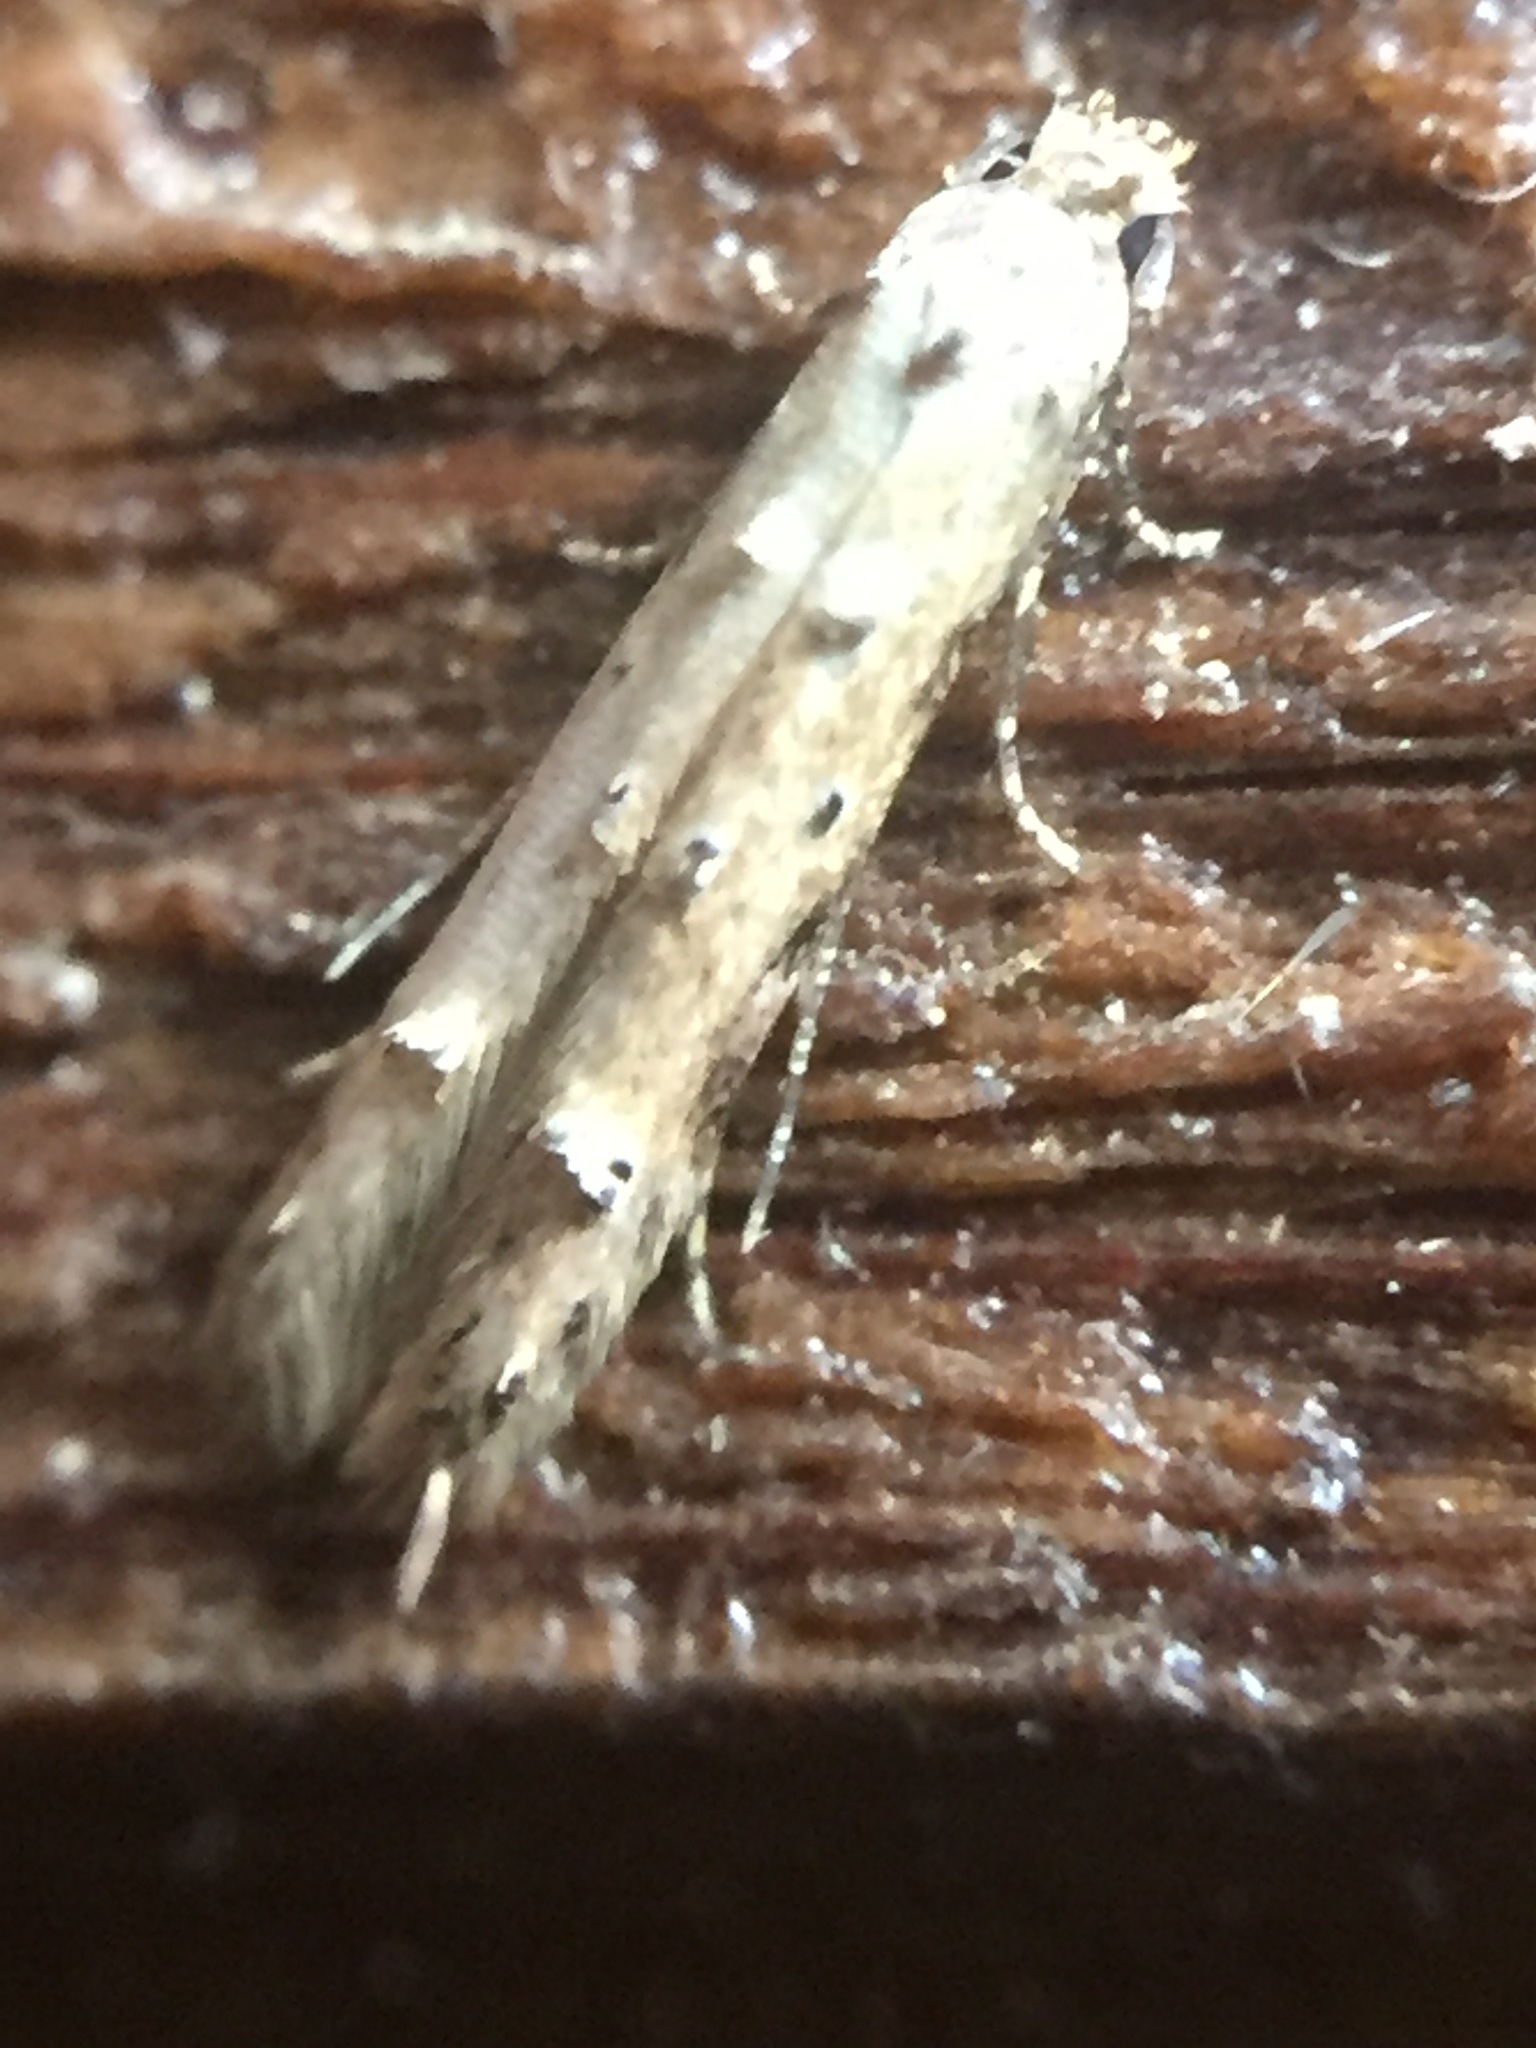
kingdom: Animalia
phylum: Arthropoda
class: Insecta
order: Lepidoptera
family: Elachistidae
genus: Microcolona
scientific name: Microcolona limodes
